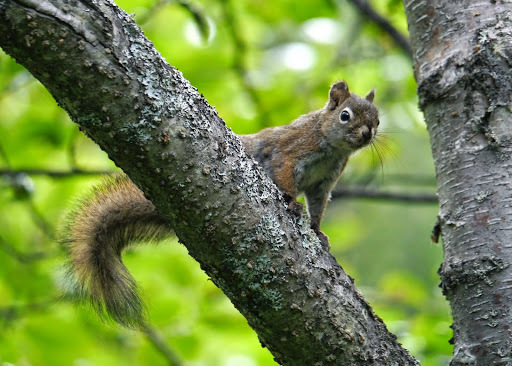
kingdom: Animalia
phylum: Chordata
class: Mammalia
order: Rodentia
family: Sciuridae
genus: Tamiasciurus
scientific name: Tamiasciurus hudsonicus
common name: Red squirrel
